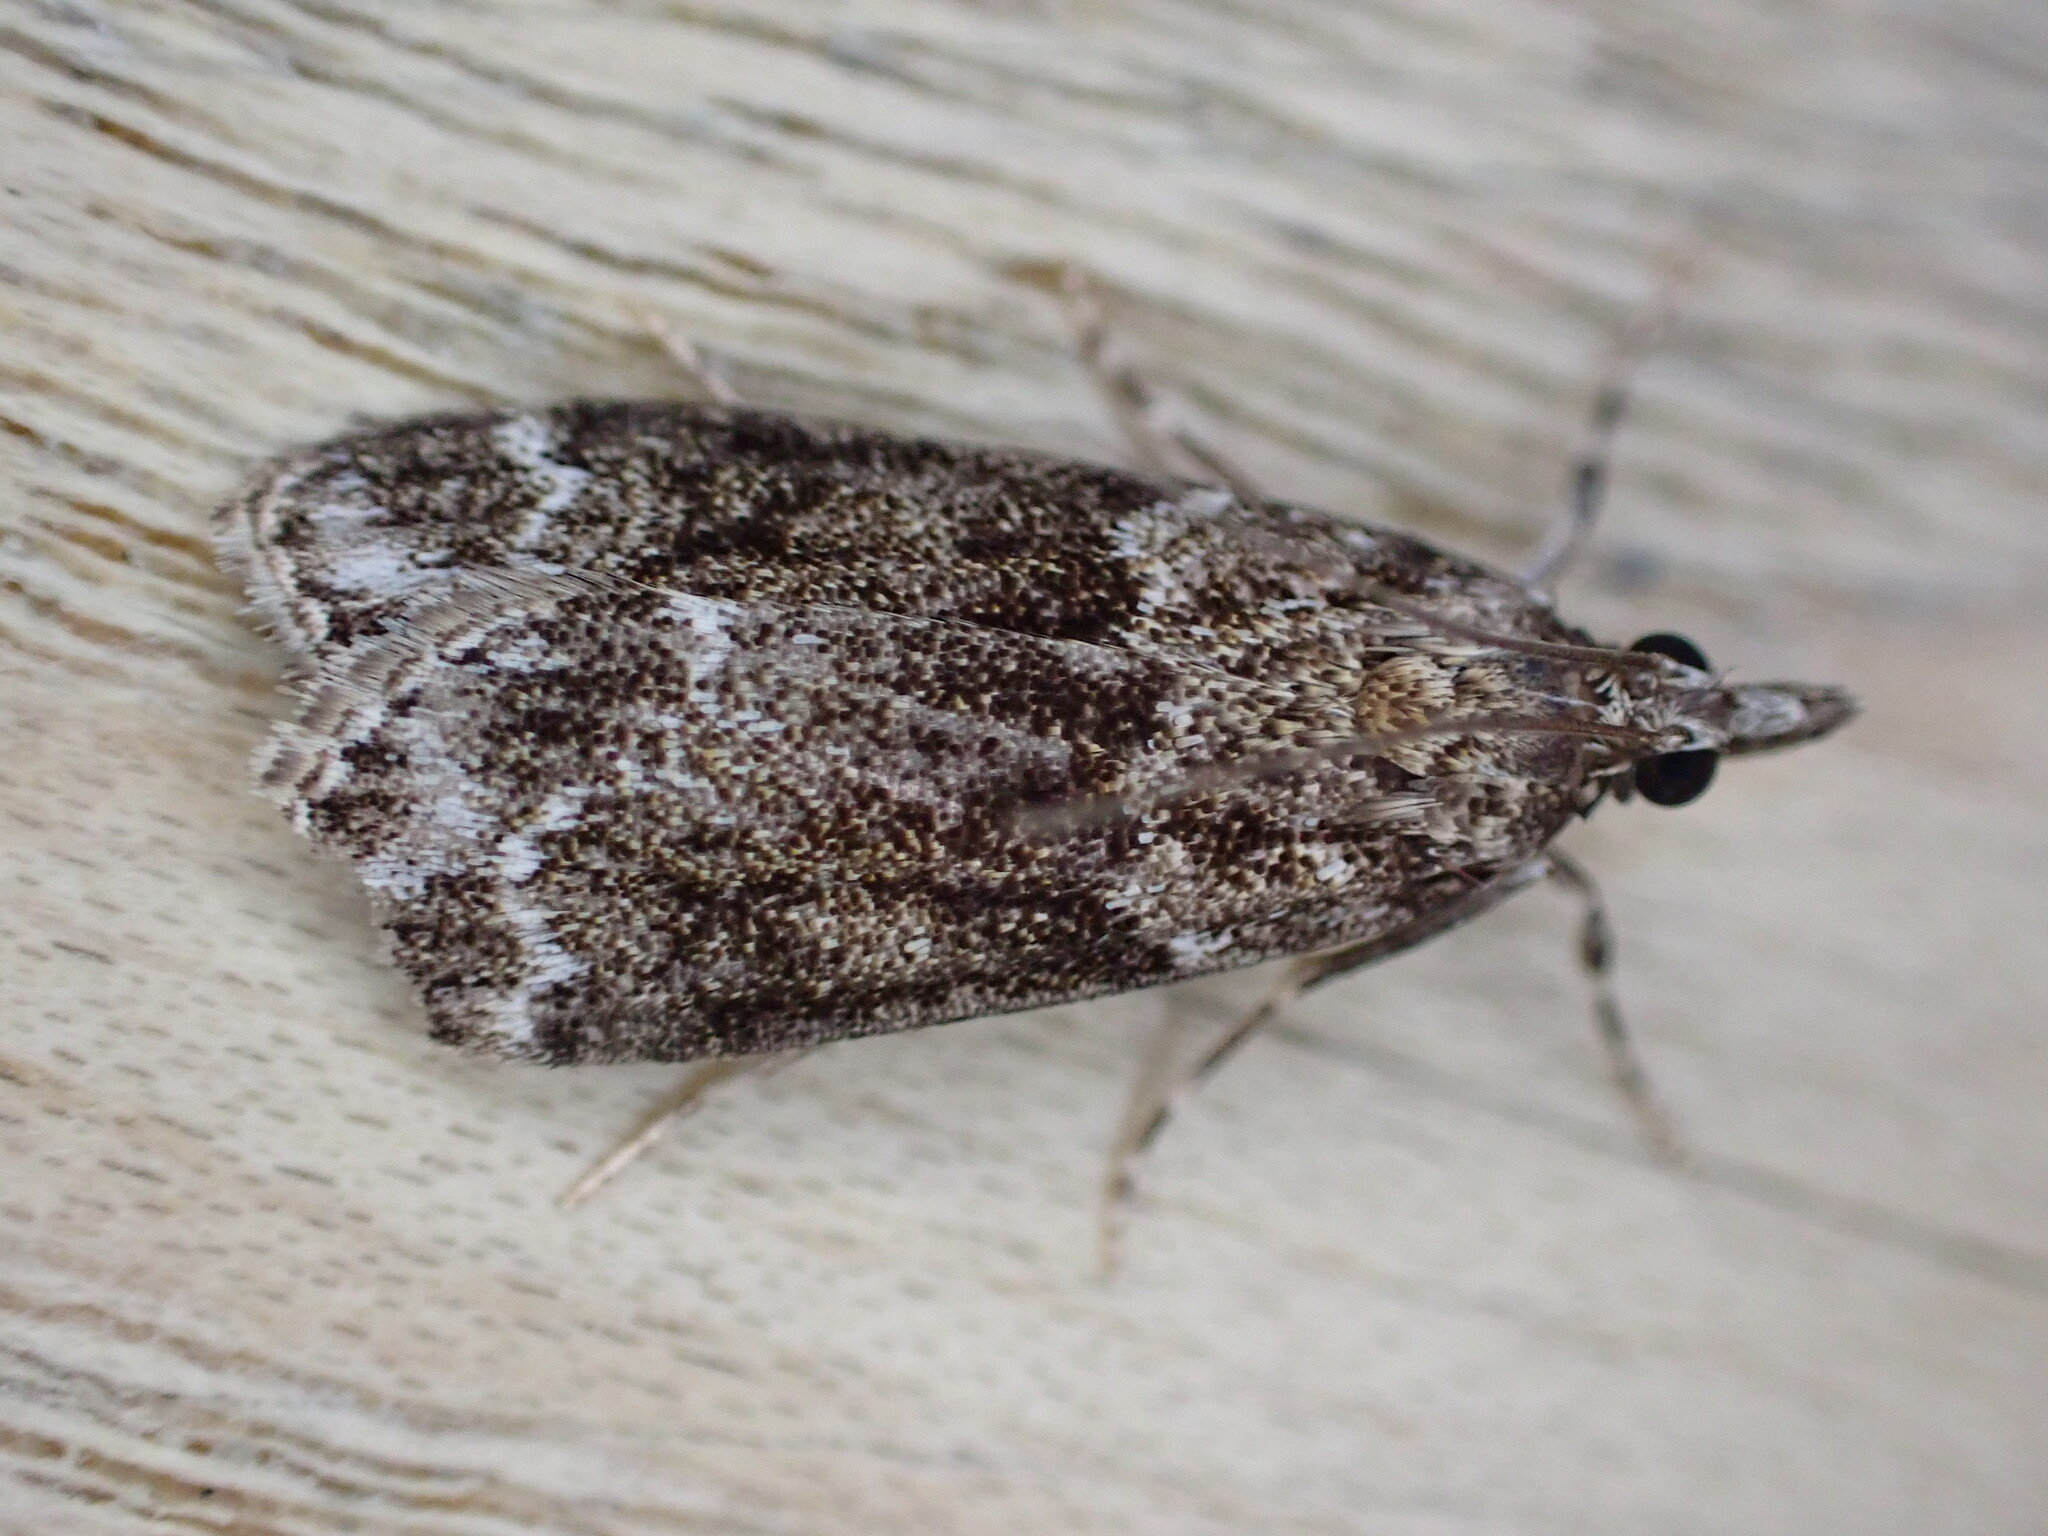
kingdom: Animalia
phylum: Arthropoda
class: Insecta
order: Lepidoptera
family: Crambidae
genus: Eudonia
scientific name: Eudonia mercurella
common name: Small grey
